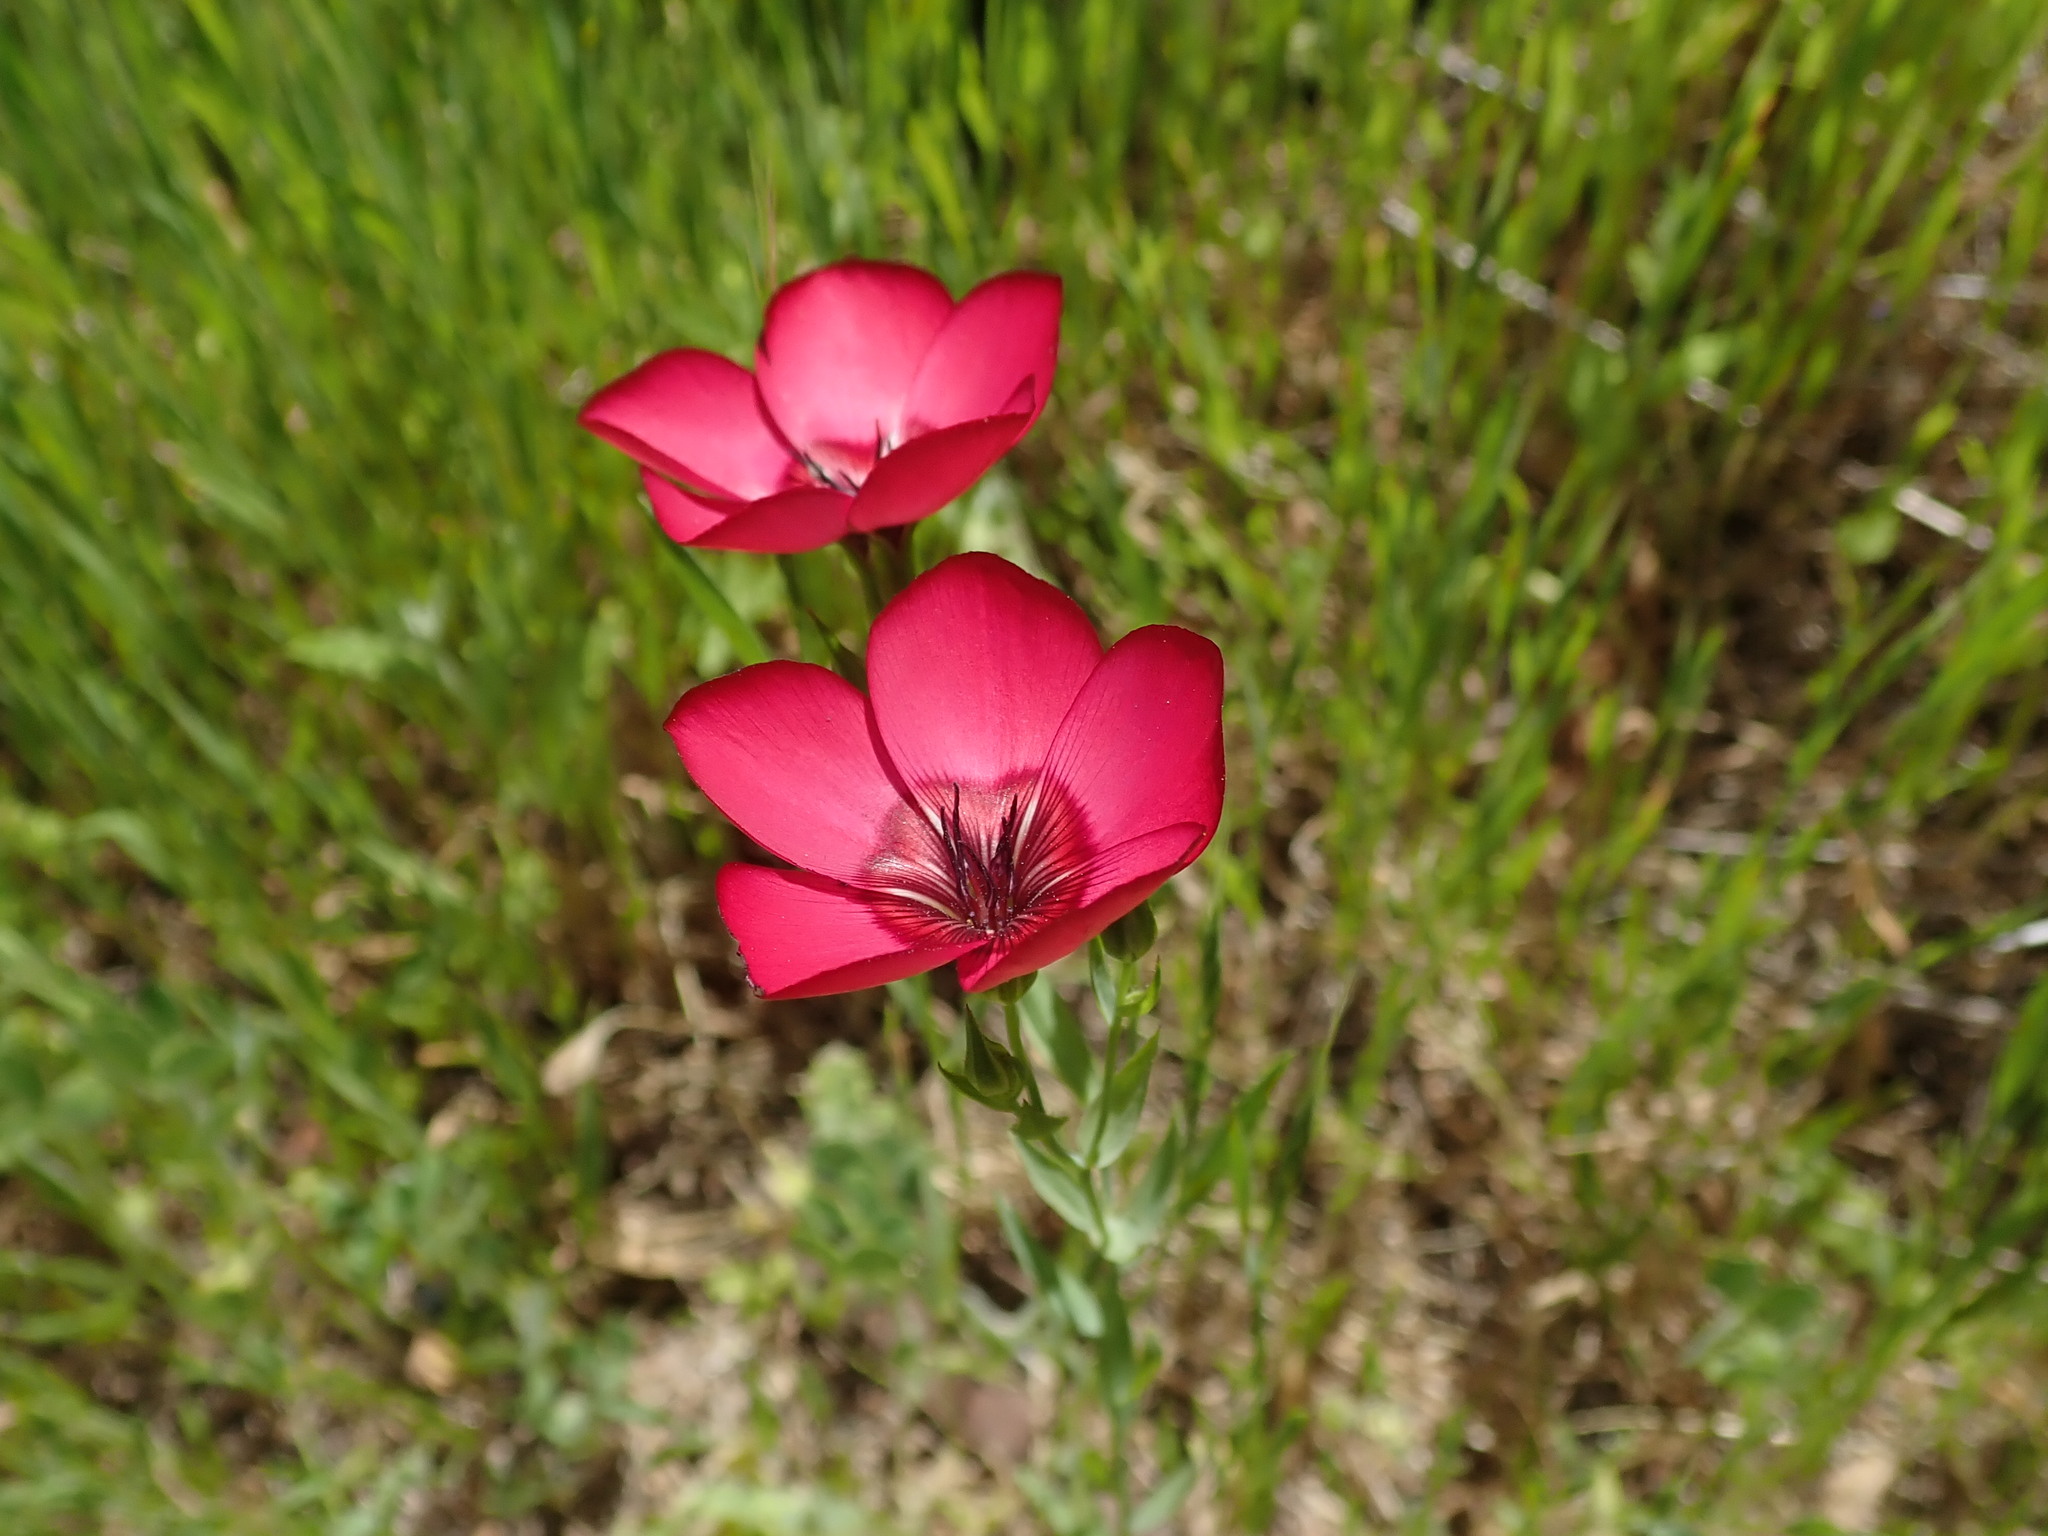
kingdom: Plantae
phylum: Tracheophyta
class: Magnoliopsida
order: Malpighiales
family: Linaceae
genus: Linum
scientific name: Linum grandiflorum
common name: Crimson flax
